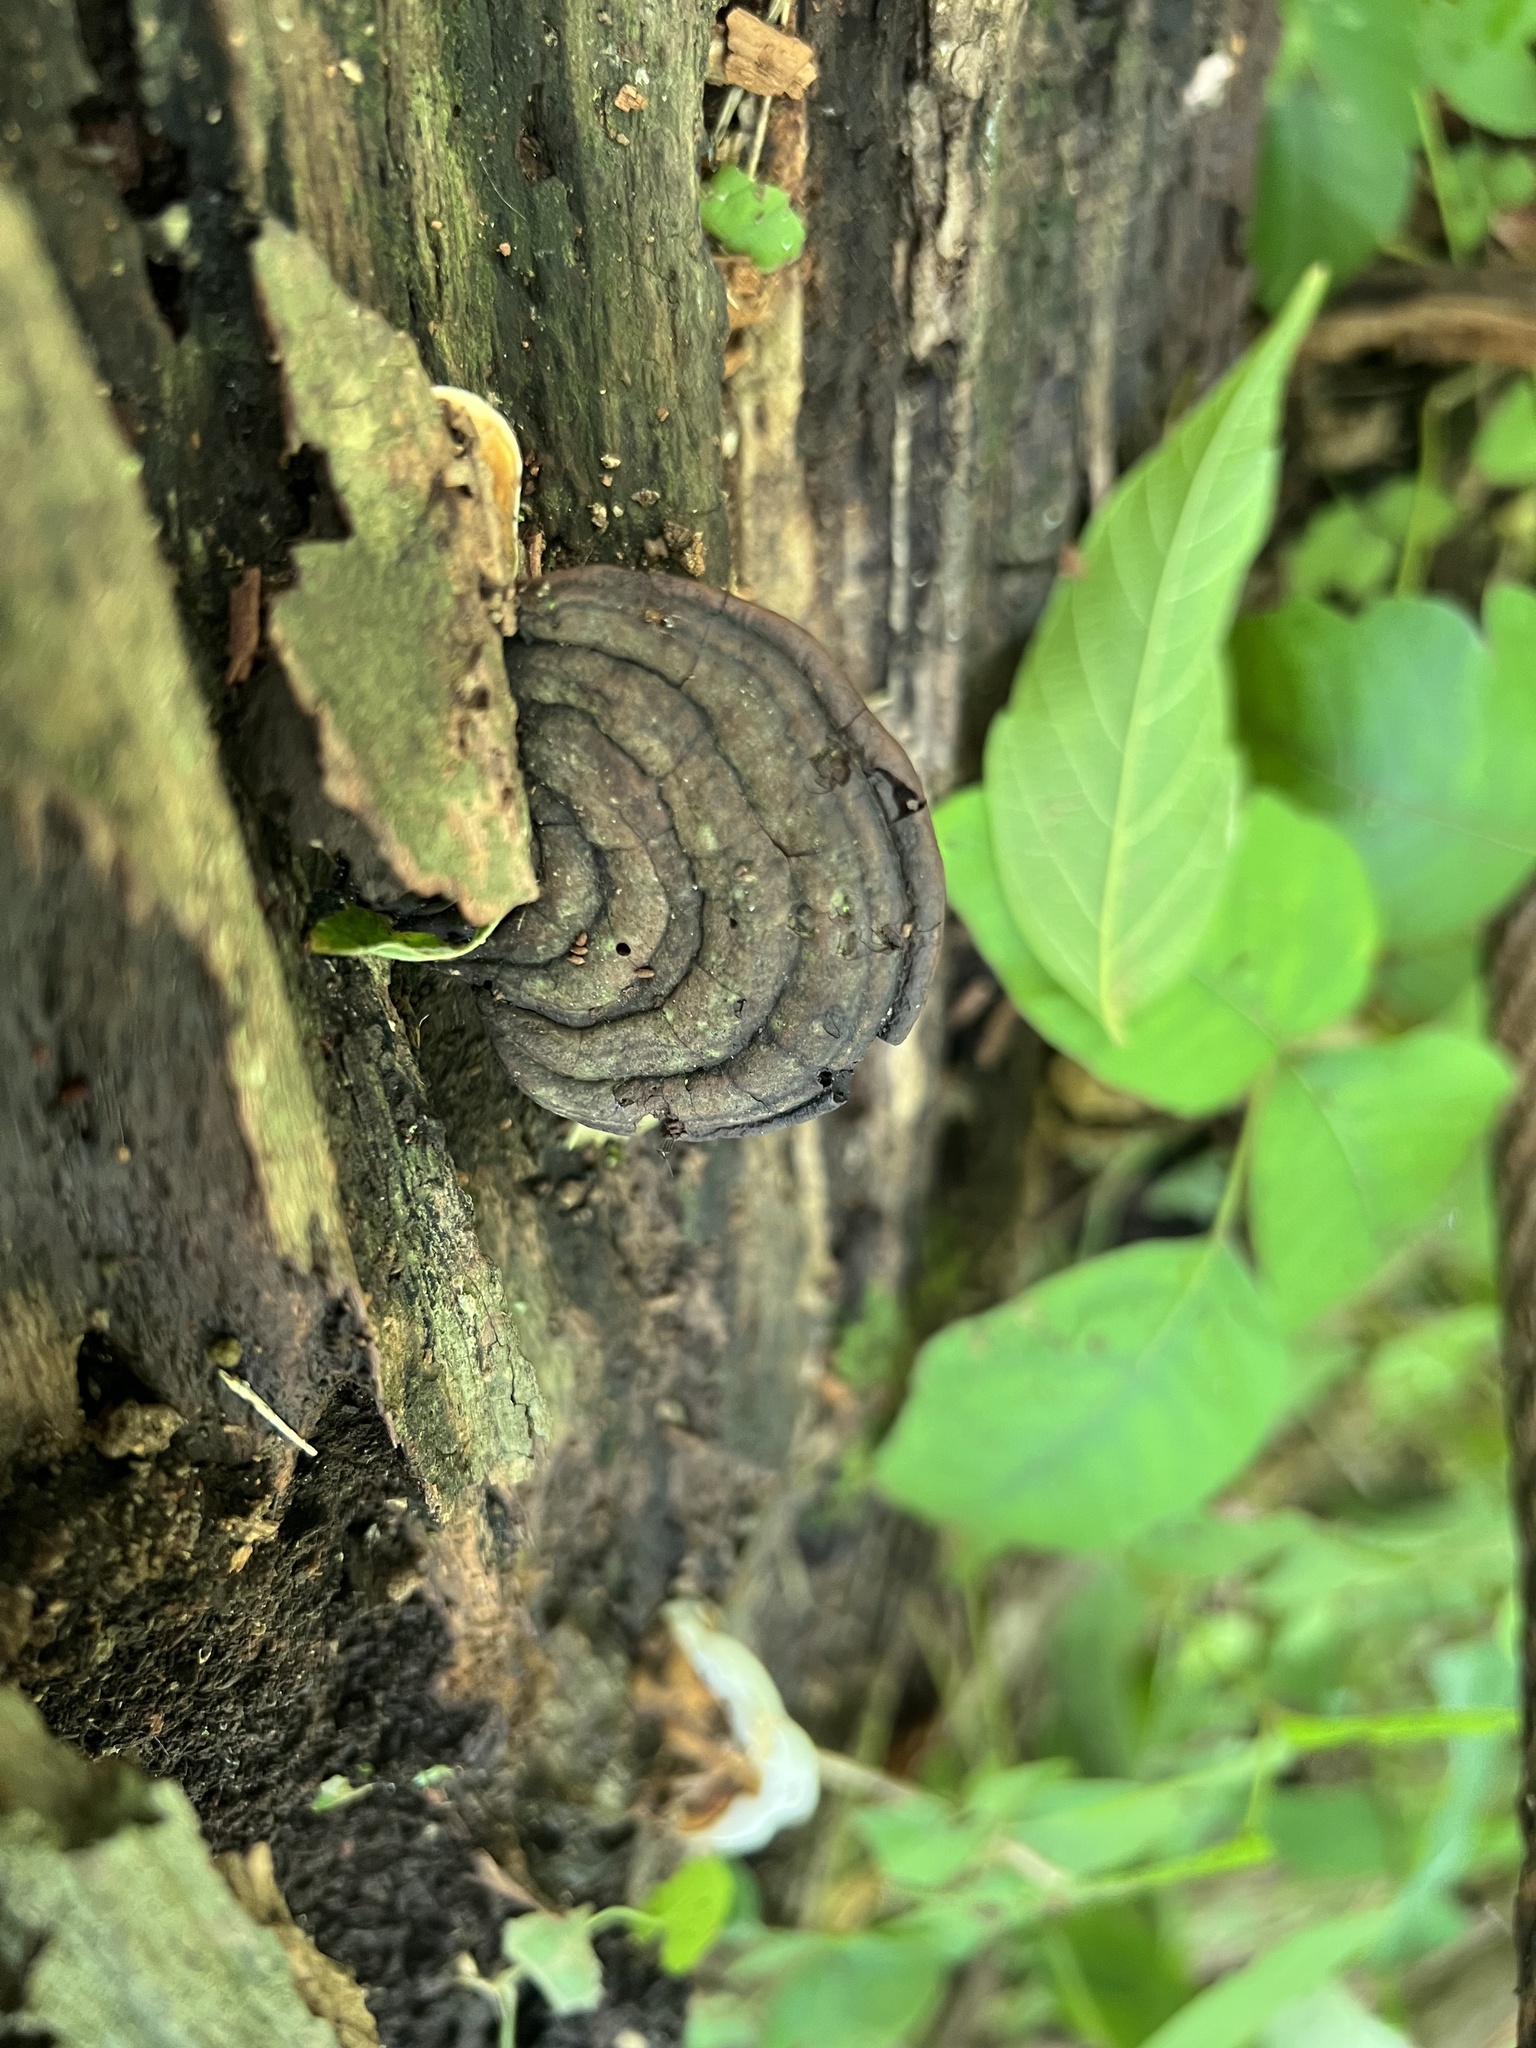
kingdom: Fungi
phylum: Basidiomycota
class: Agaricomycetes
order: Polyporales
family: Polyporaceae
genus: Ganoderma
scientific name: Ganoderma lobatum
